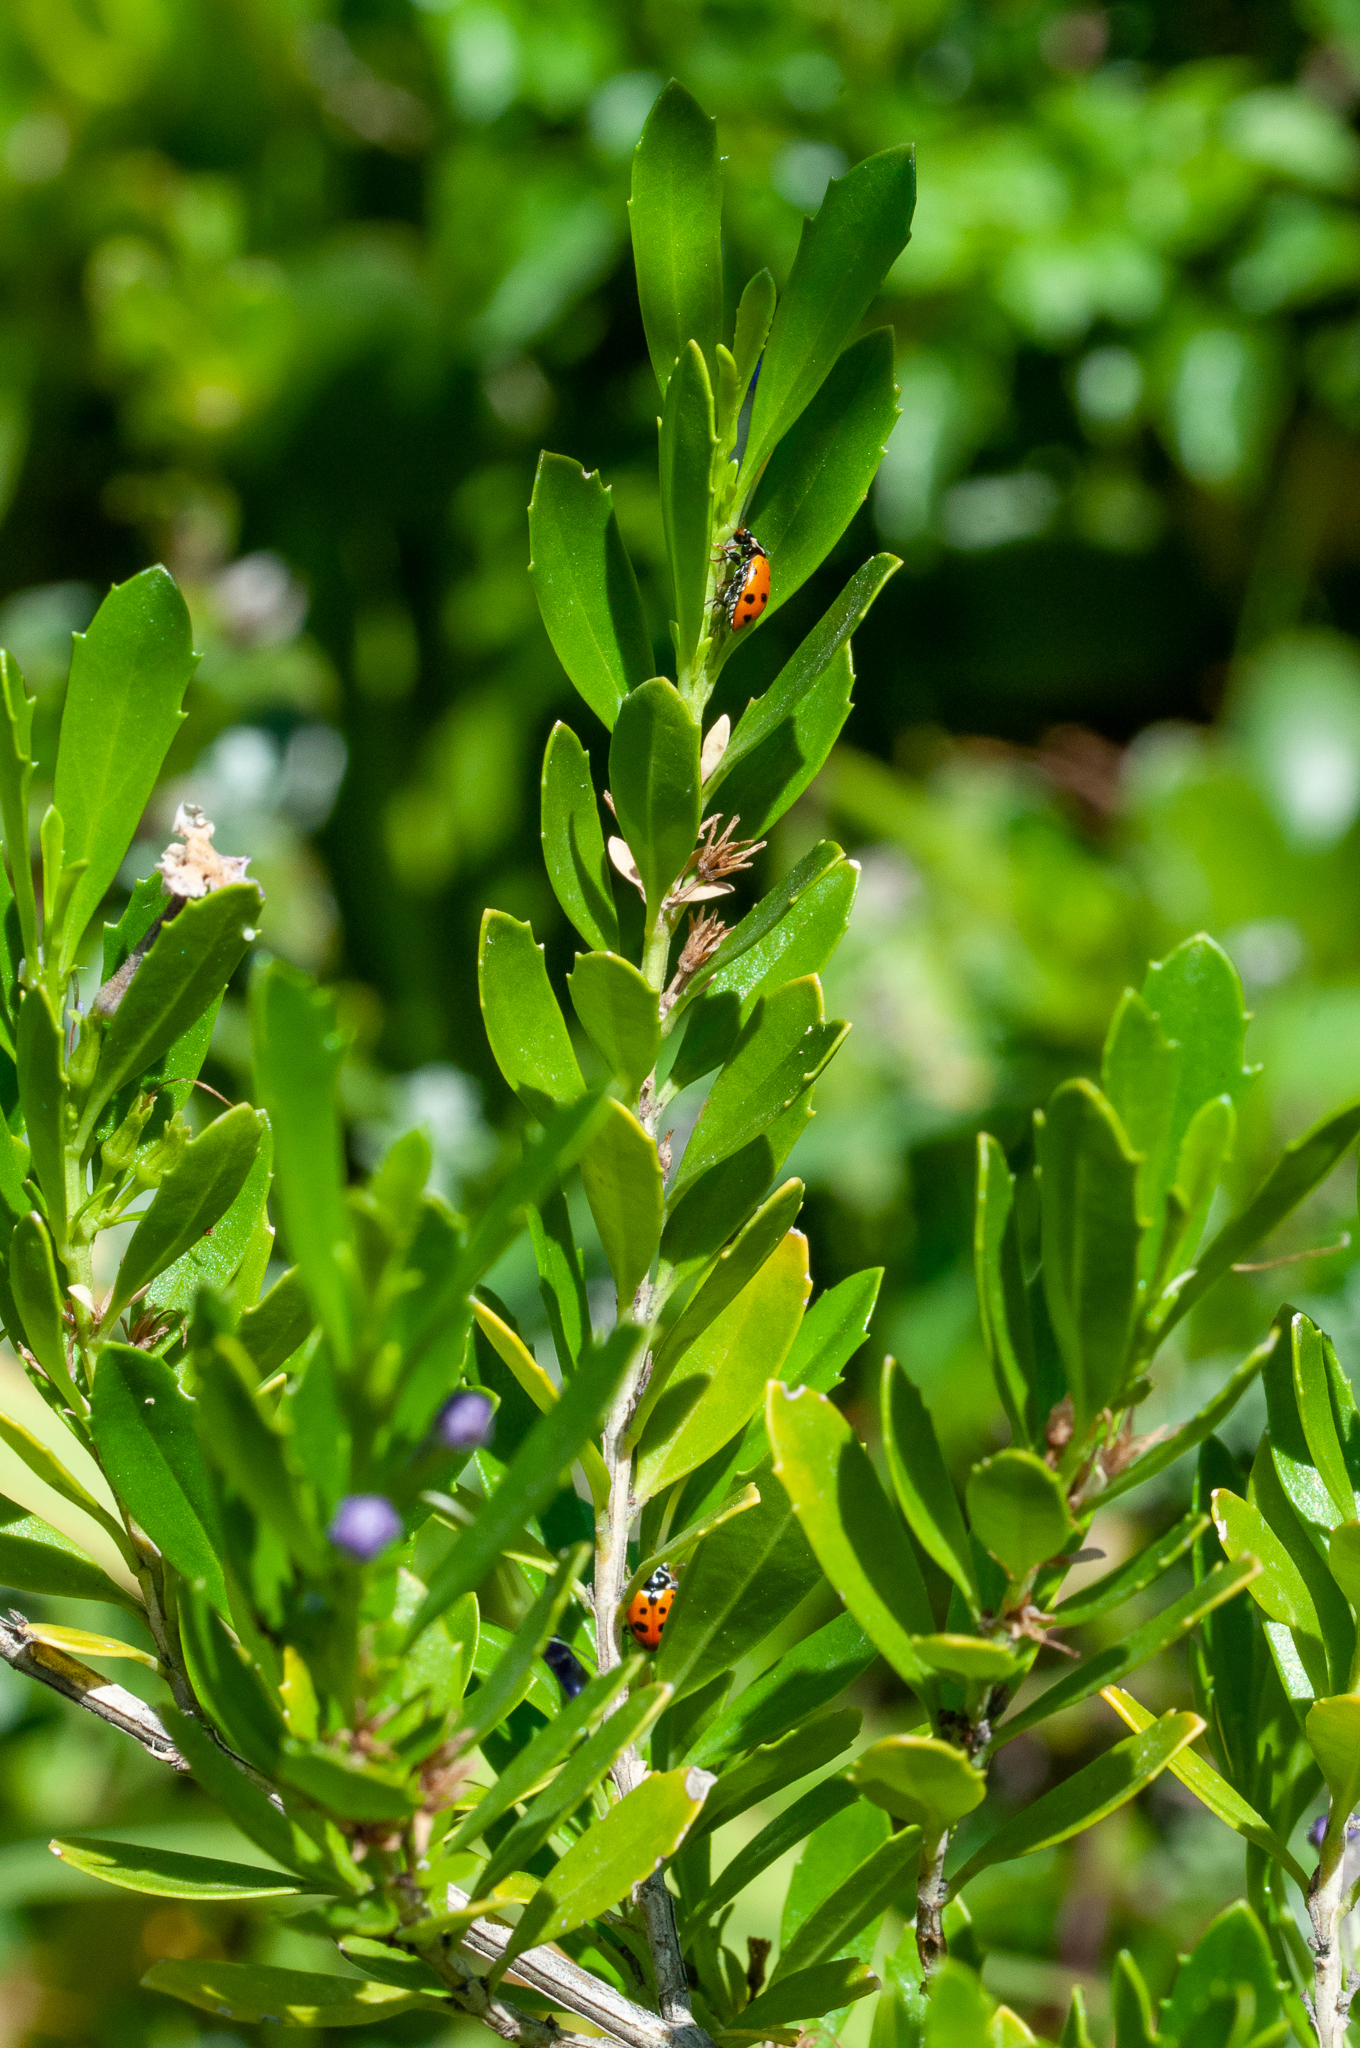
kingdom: Animalia
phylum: Arthropoda
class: Insecta
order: Coleoptera
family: Coccinellidae
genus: Hippodamia
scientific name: Hippodamia variegata
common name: Ladybird beetle
